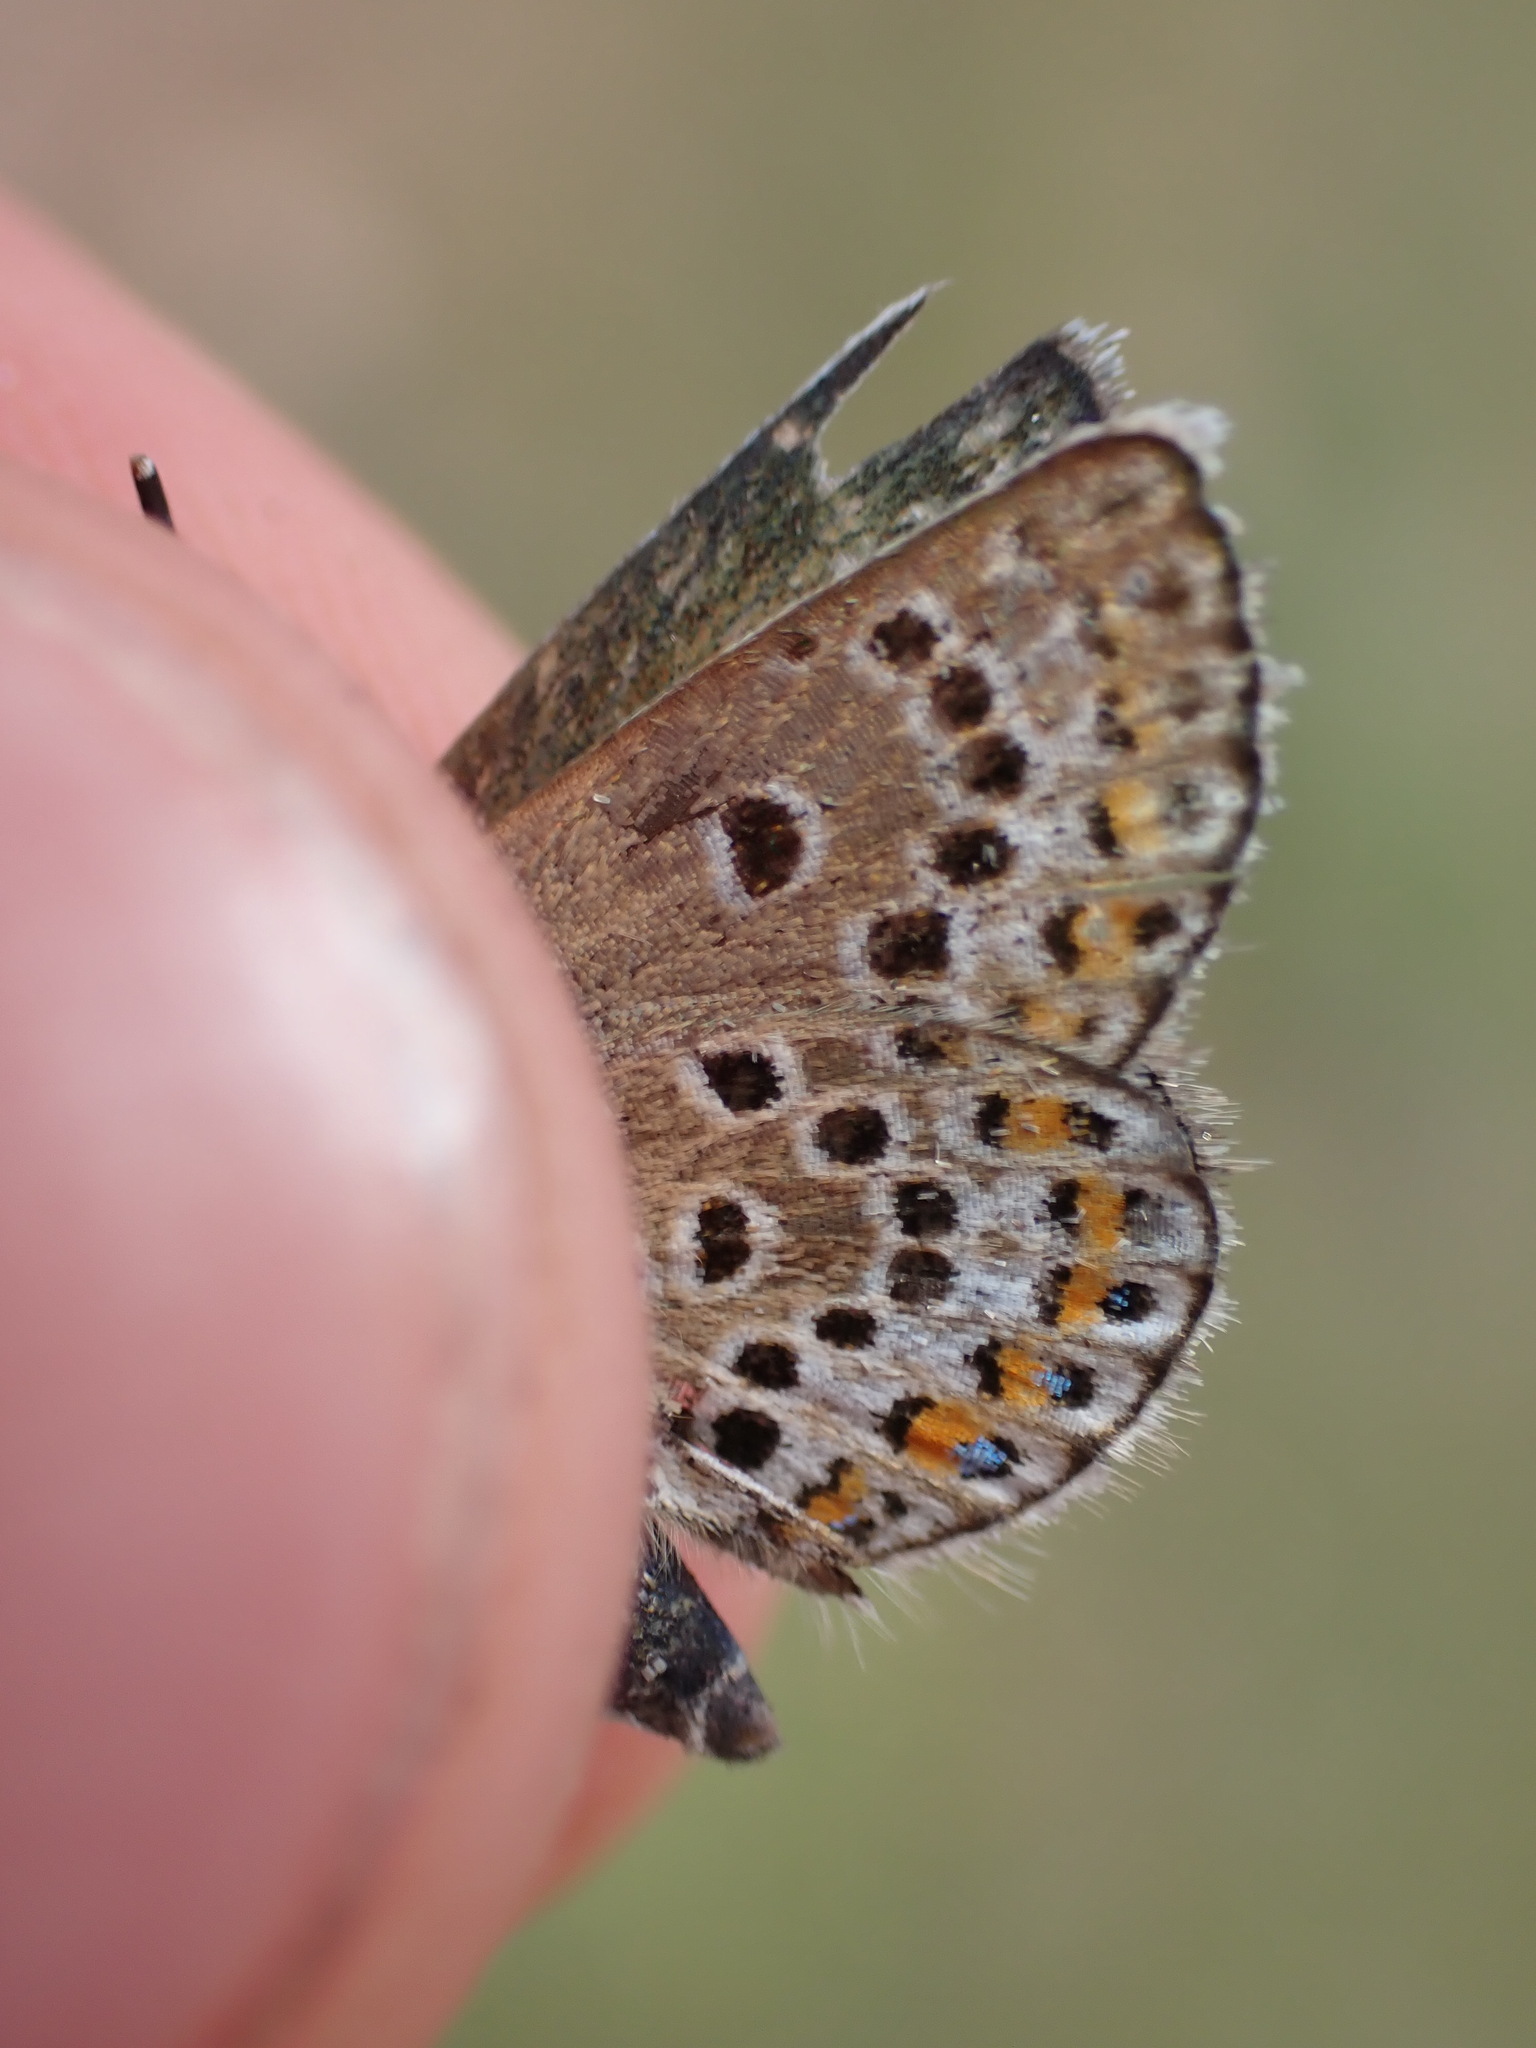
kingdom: Animalia
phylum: Arthropoda
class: Insecta
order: Lepidoptera
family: Lycaenidae
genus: Plebejus
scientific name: Plebejus argus
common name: Silver-studded blue
